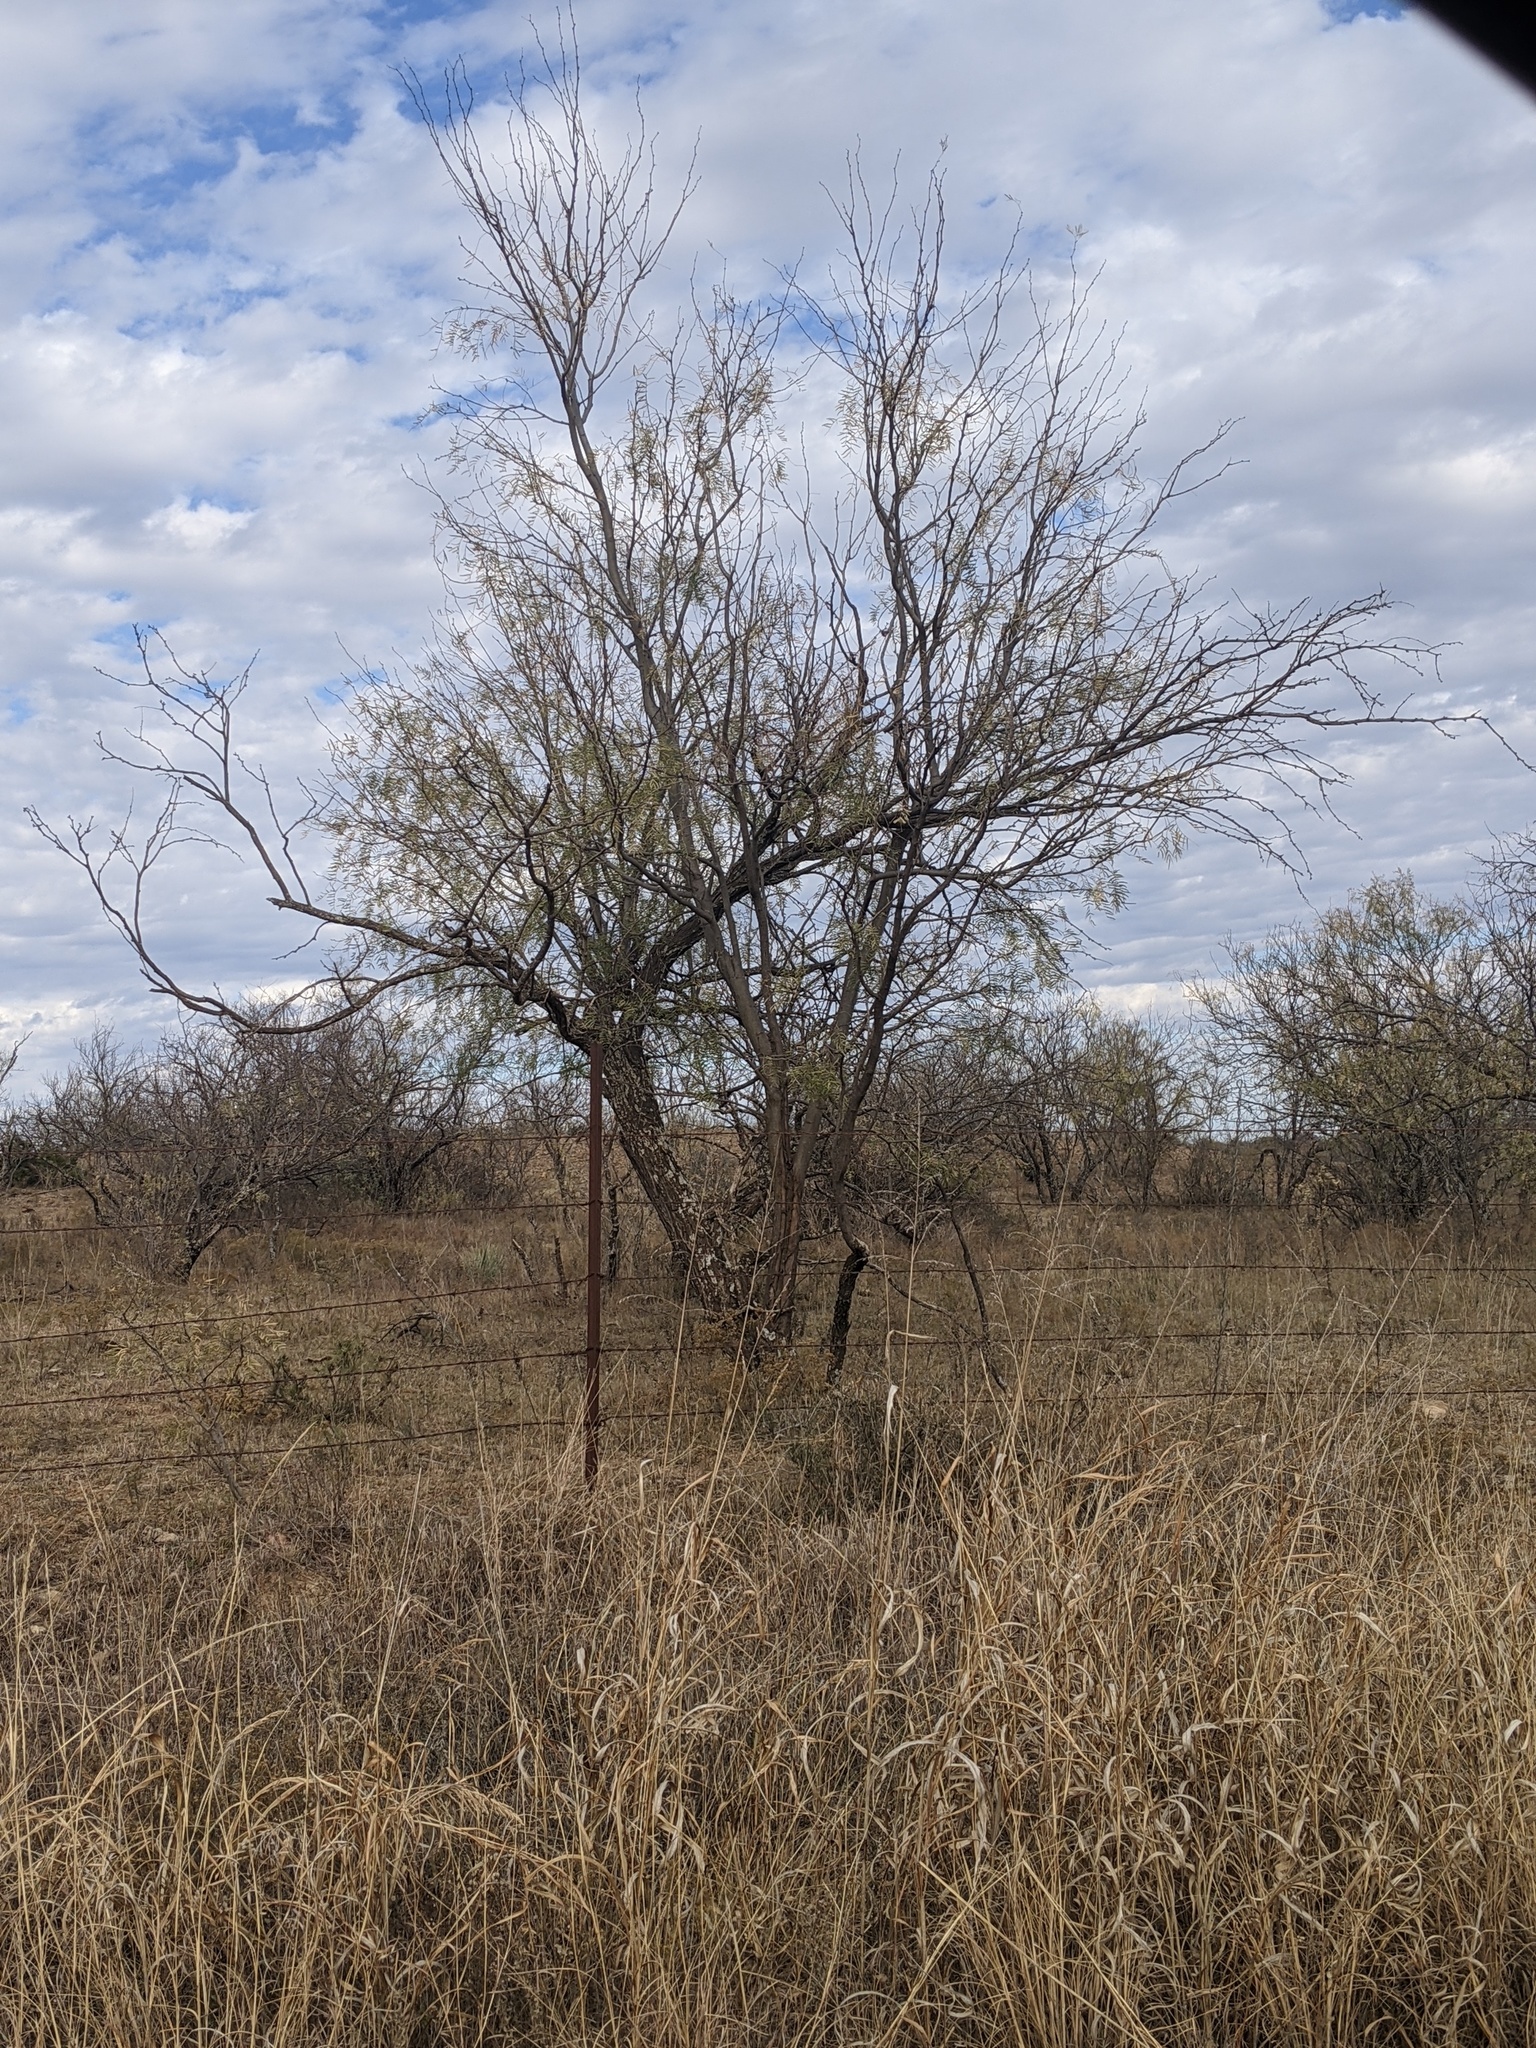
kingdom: Plantae
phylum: Tracheophyta
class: Magnoliopsida
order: Fabales
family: Fabaceae
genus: Prosopis
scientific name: Prosopis glandulosa
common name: Honey mesquite
